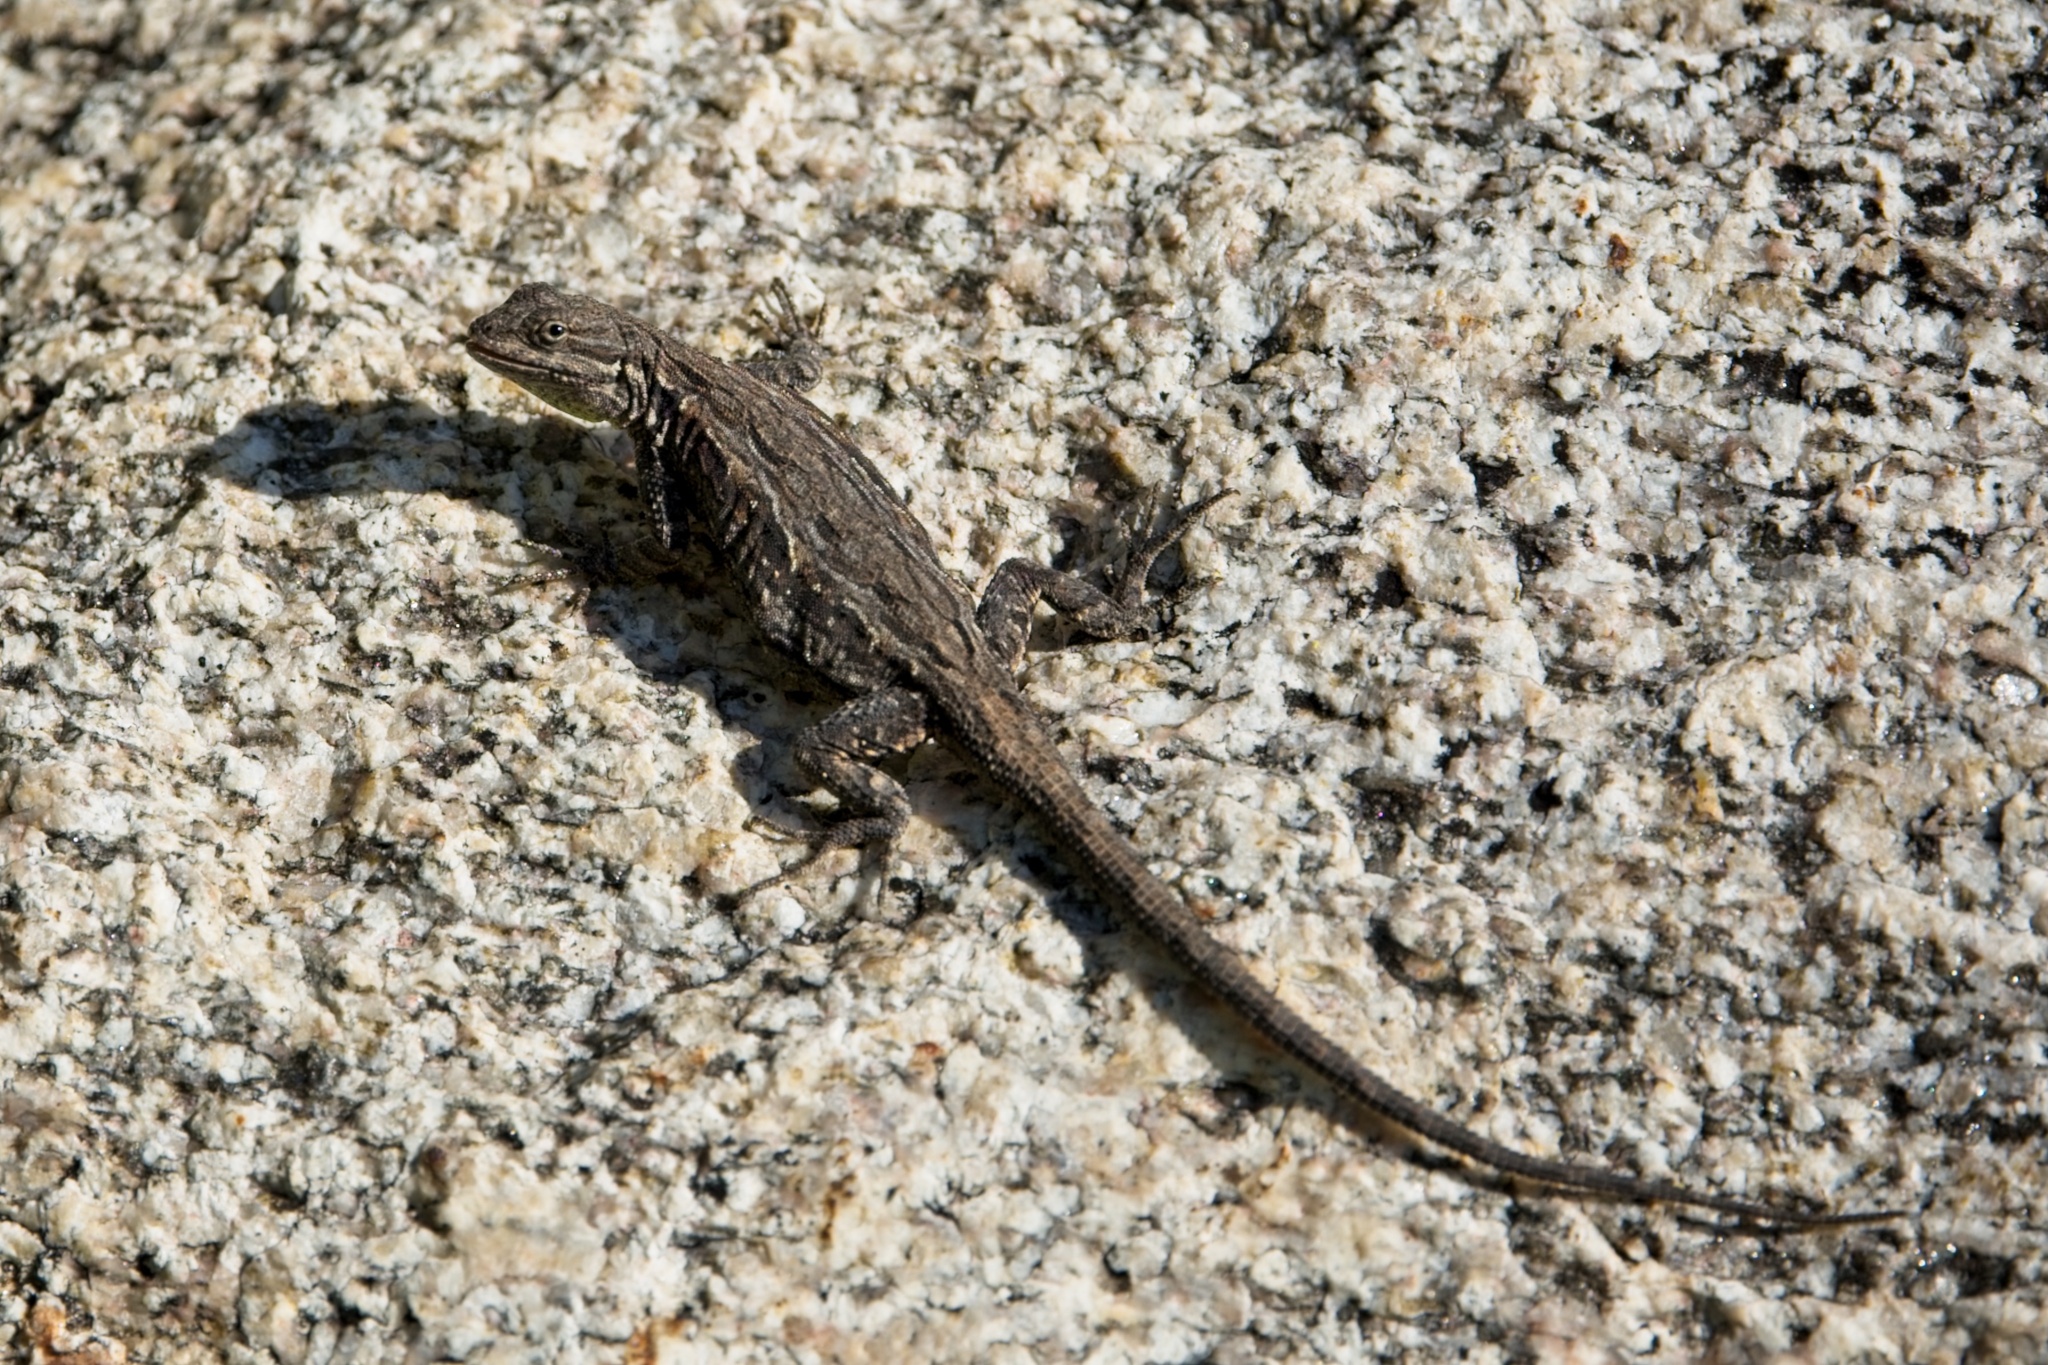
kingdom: Animalia
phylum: Chordata
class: Squamata
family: Phrynosomatidae
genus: Urosaurus
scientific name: Urosaurus ornatus
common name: Ornate tree lizard
